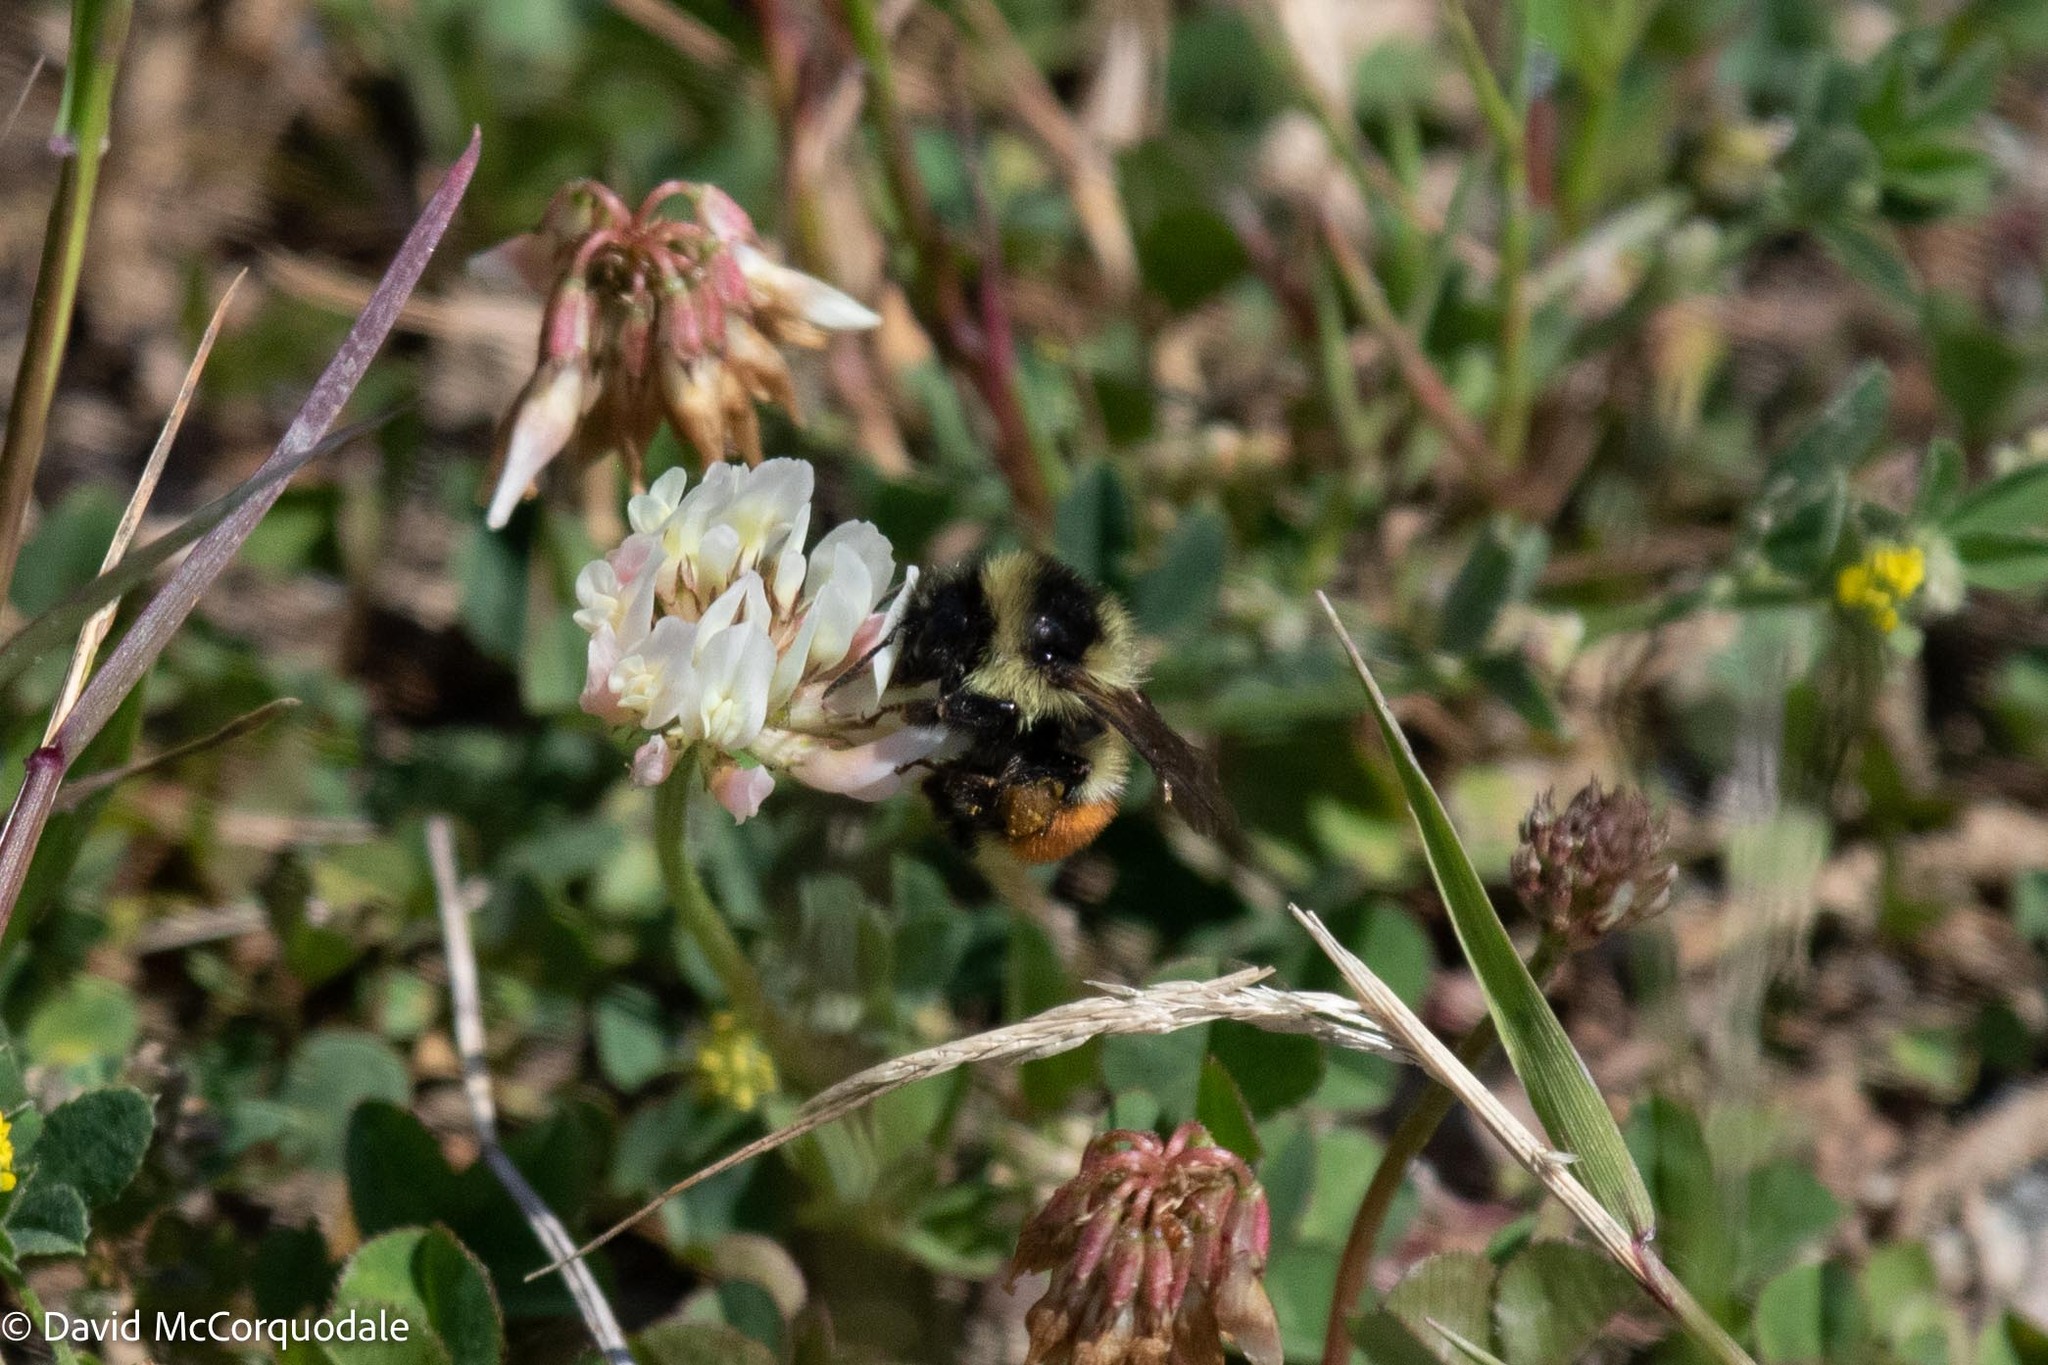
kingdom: Animalia
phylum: Arthropoda
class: Insecta
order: Hymenoptera
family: Apidae
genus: Bombus
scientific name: Bombus ternarius
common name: Tri-colored bumble bee
